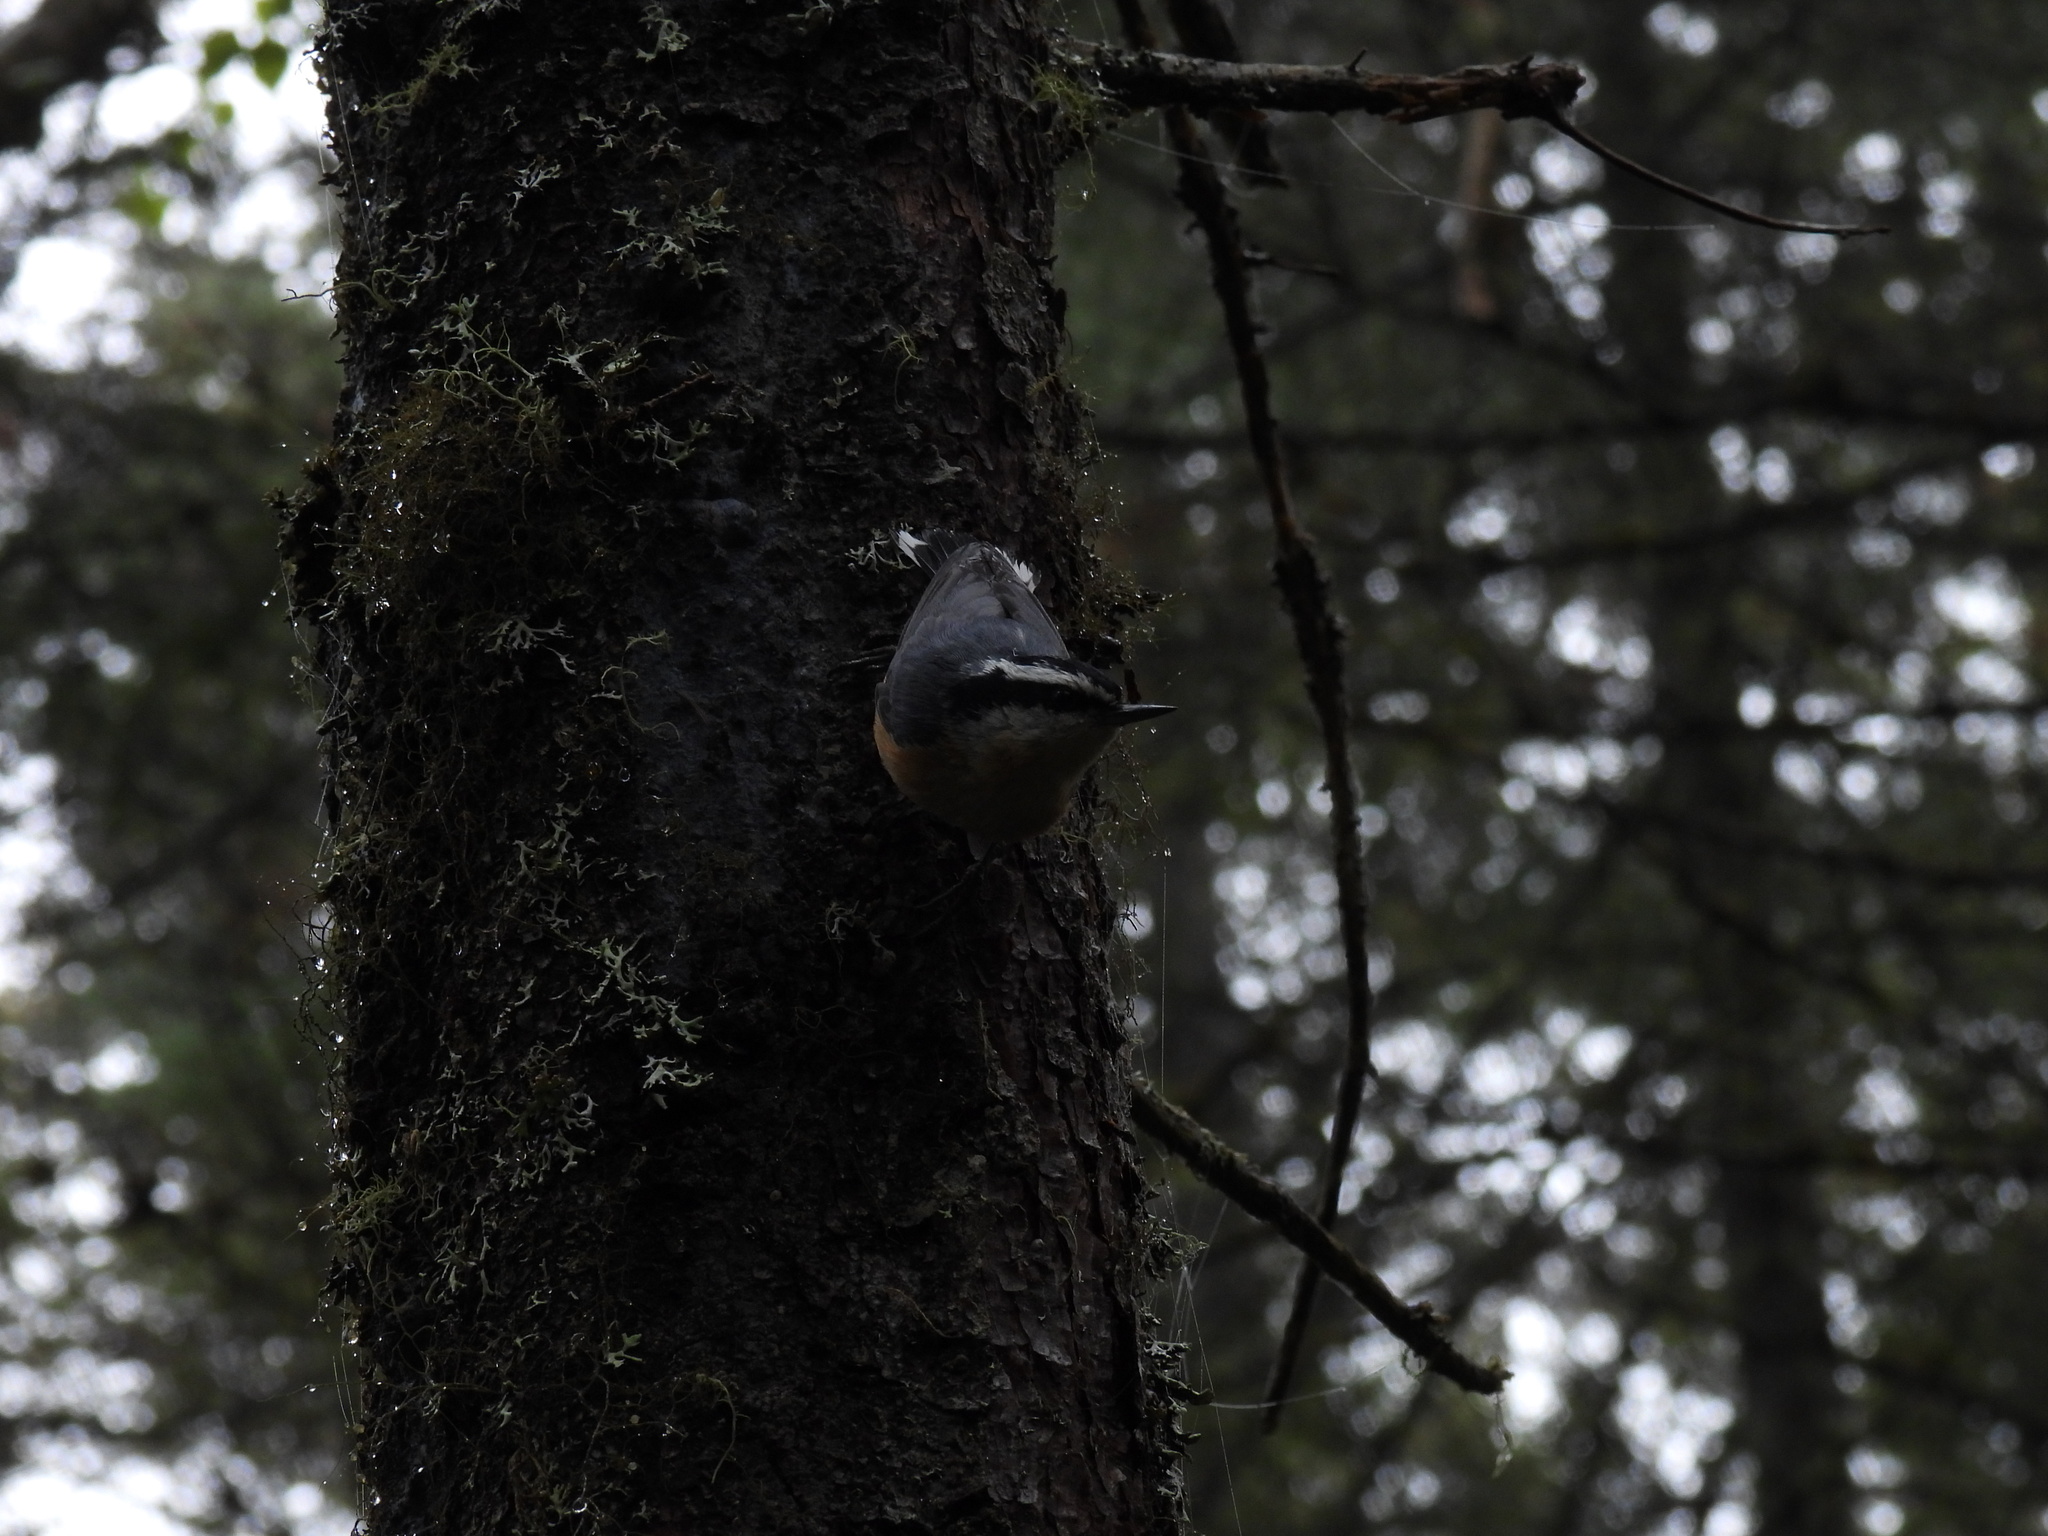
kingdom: Animalia
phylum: Chordata
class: Aves
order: Passeriformes
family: Sittidae
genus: Sitta
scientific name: Sitta canadensis
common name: Red-breasted nuthatch
